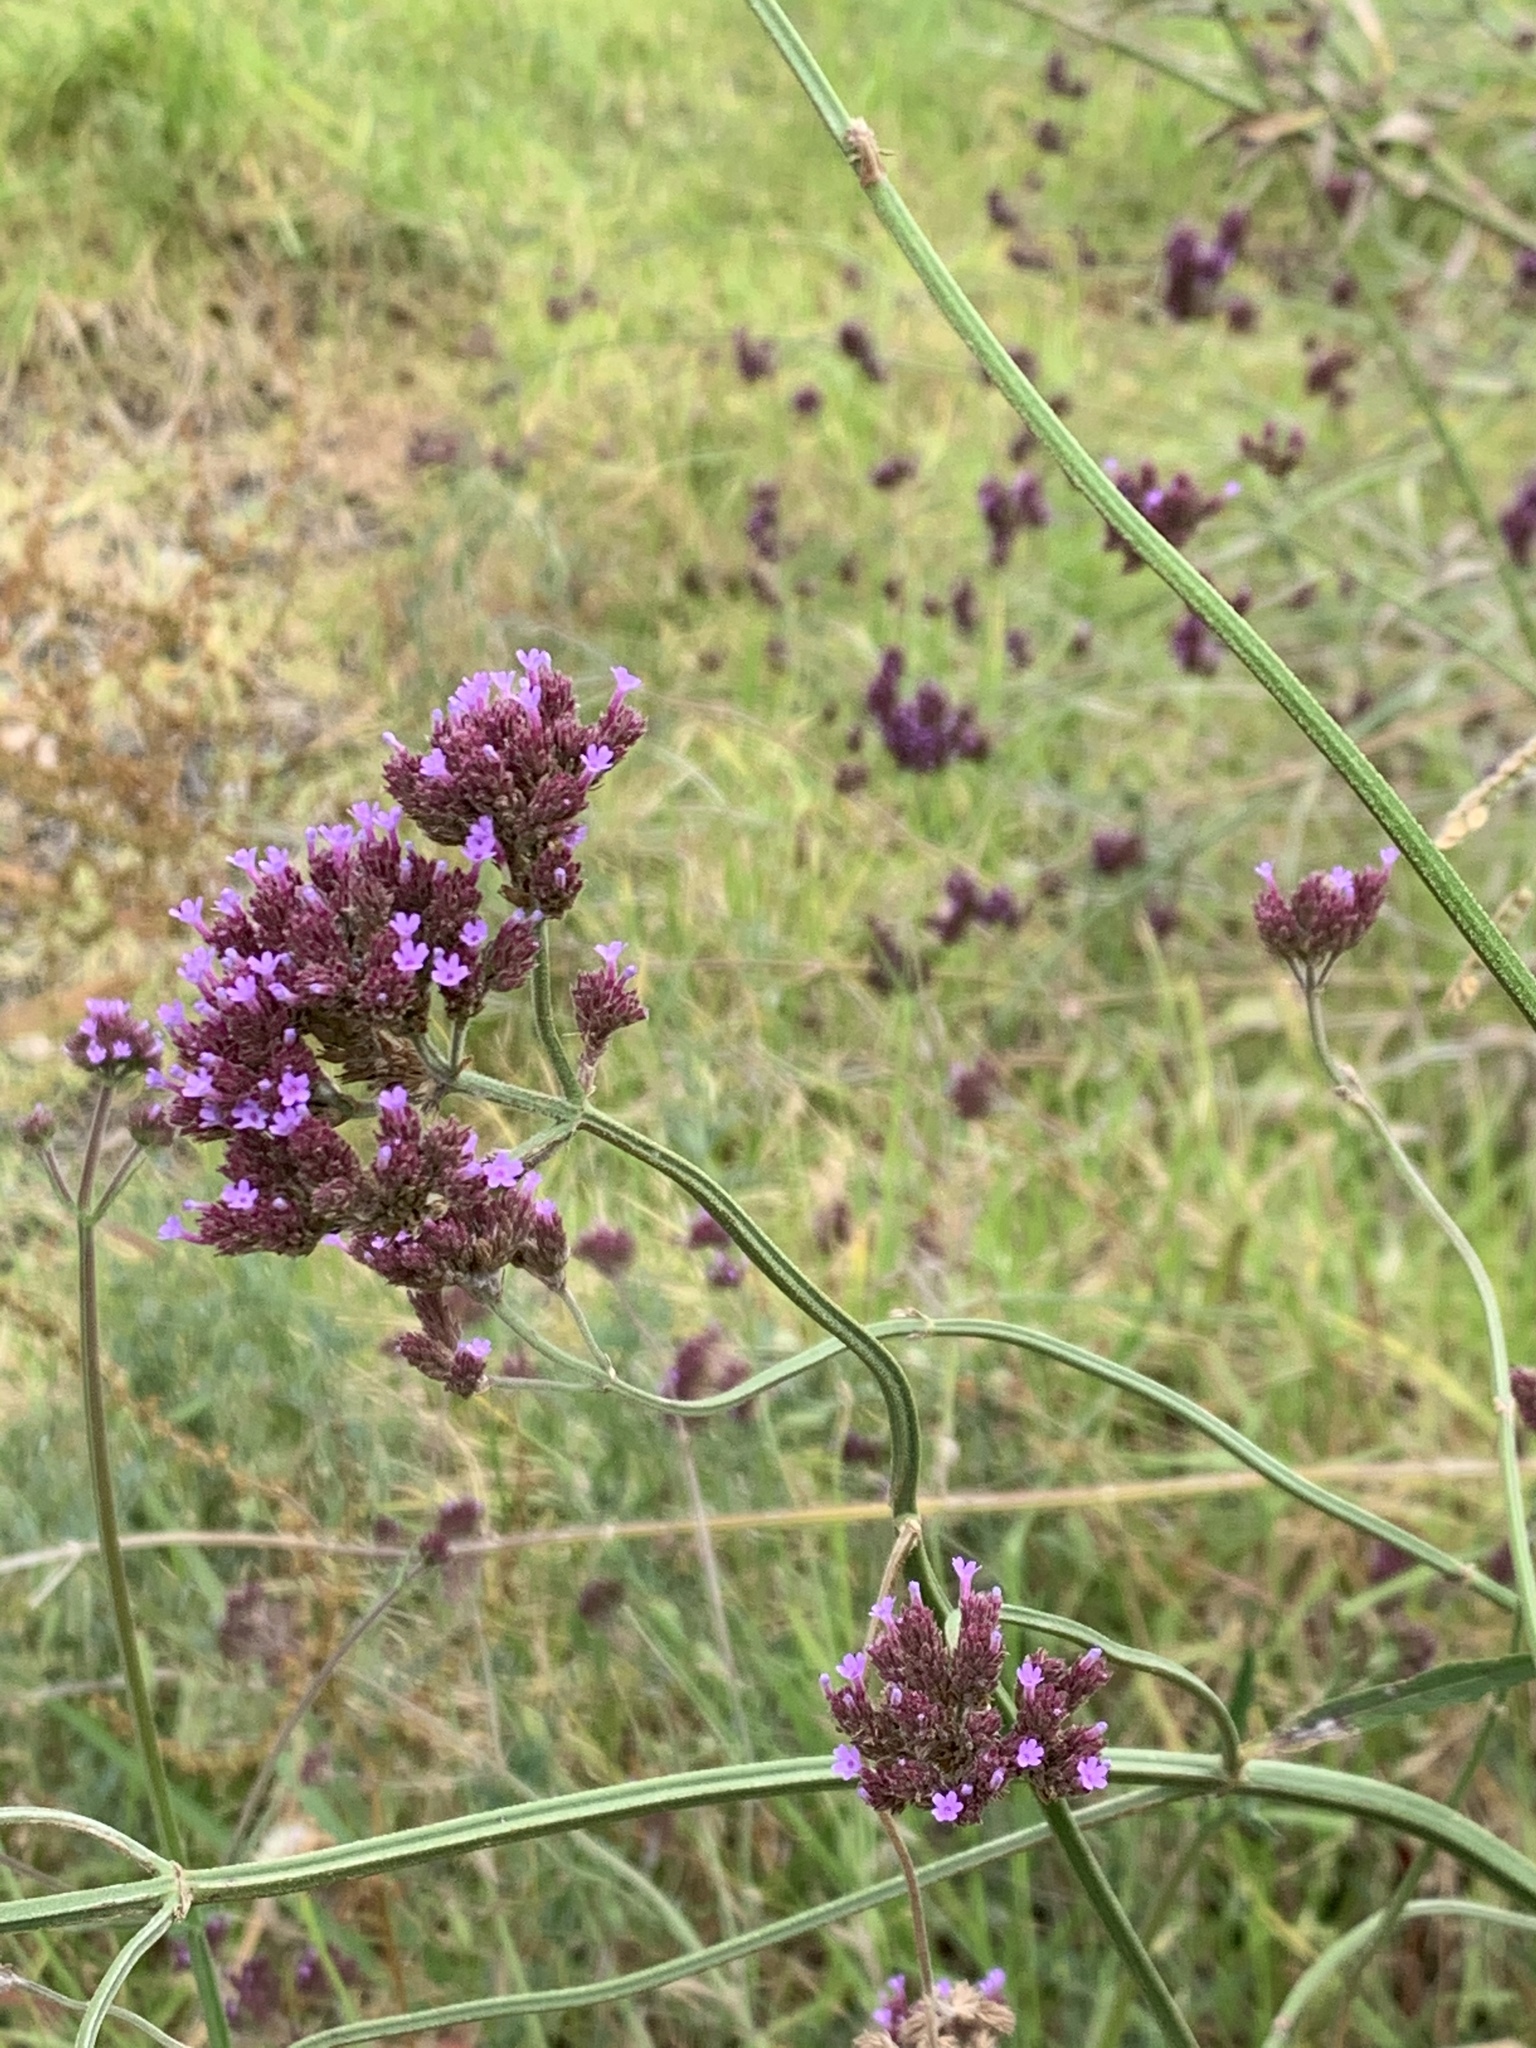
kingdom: Plantae
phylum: Tracheophyta
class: Magnoliopsida
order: Lamiales
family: Verbenaceae
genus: Verbena
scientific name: Verbena bonariensis
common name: Purpletop vervain
